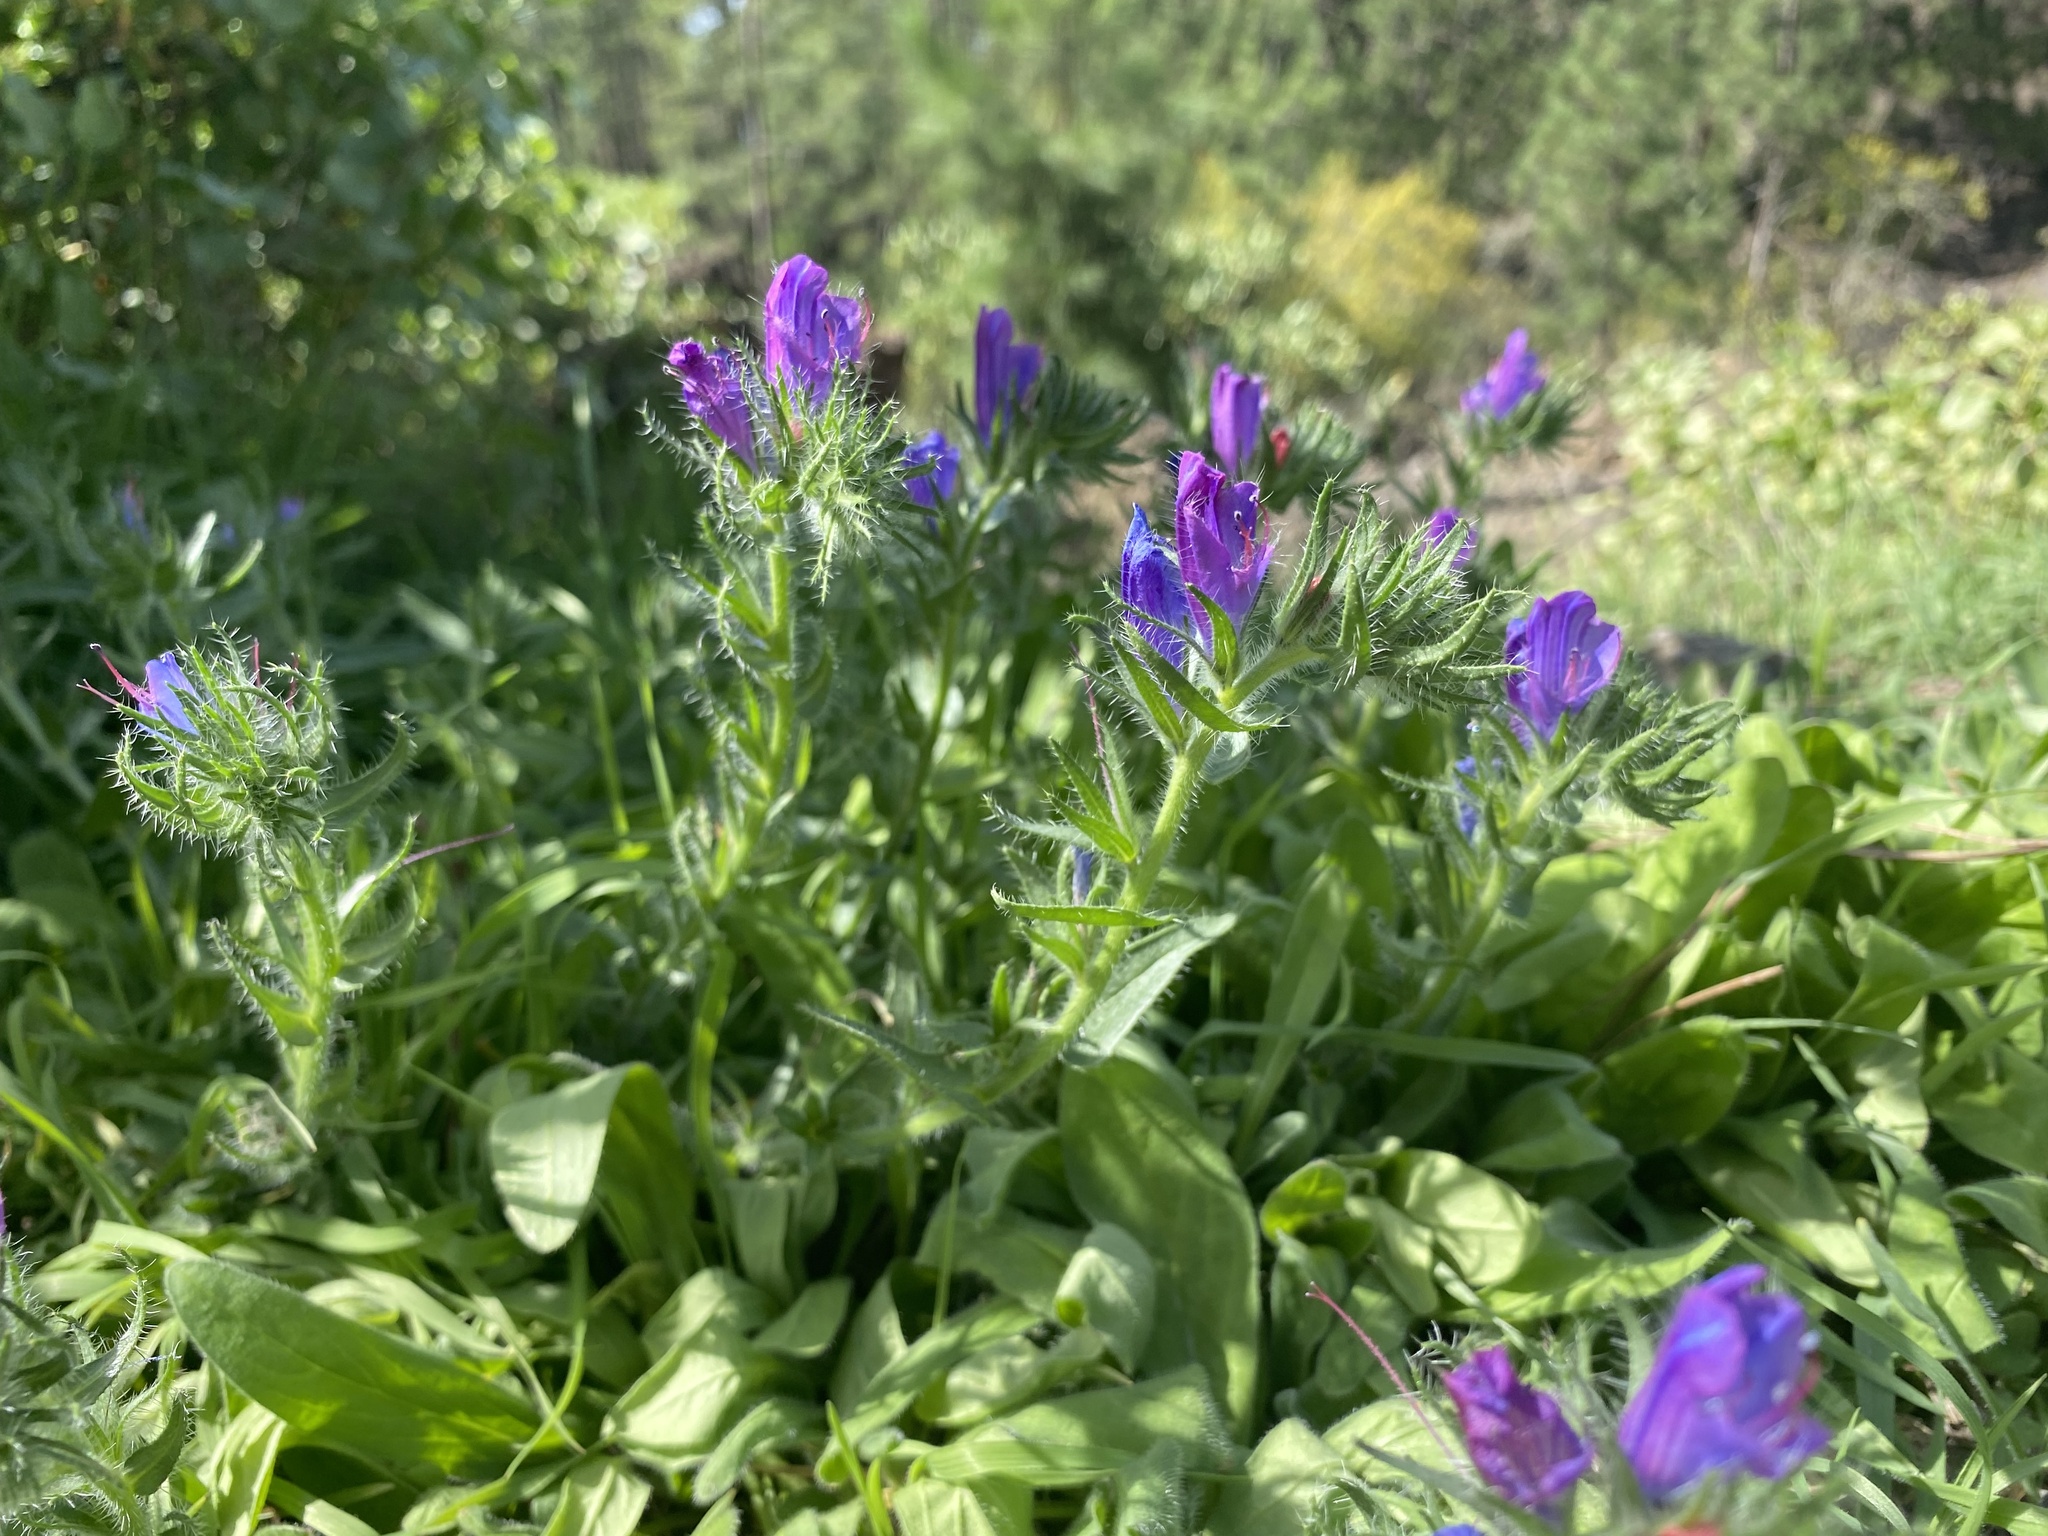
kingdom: Plantae
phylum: Tracheophyta
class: Magnoliopsida
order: Boraginales
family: Boraginaceae
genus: Echium
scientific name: Echium plantagineum
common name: Purple viper's-bugloss
